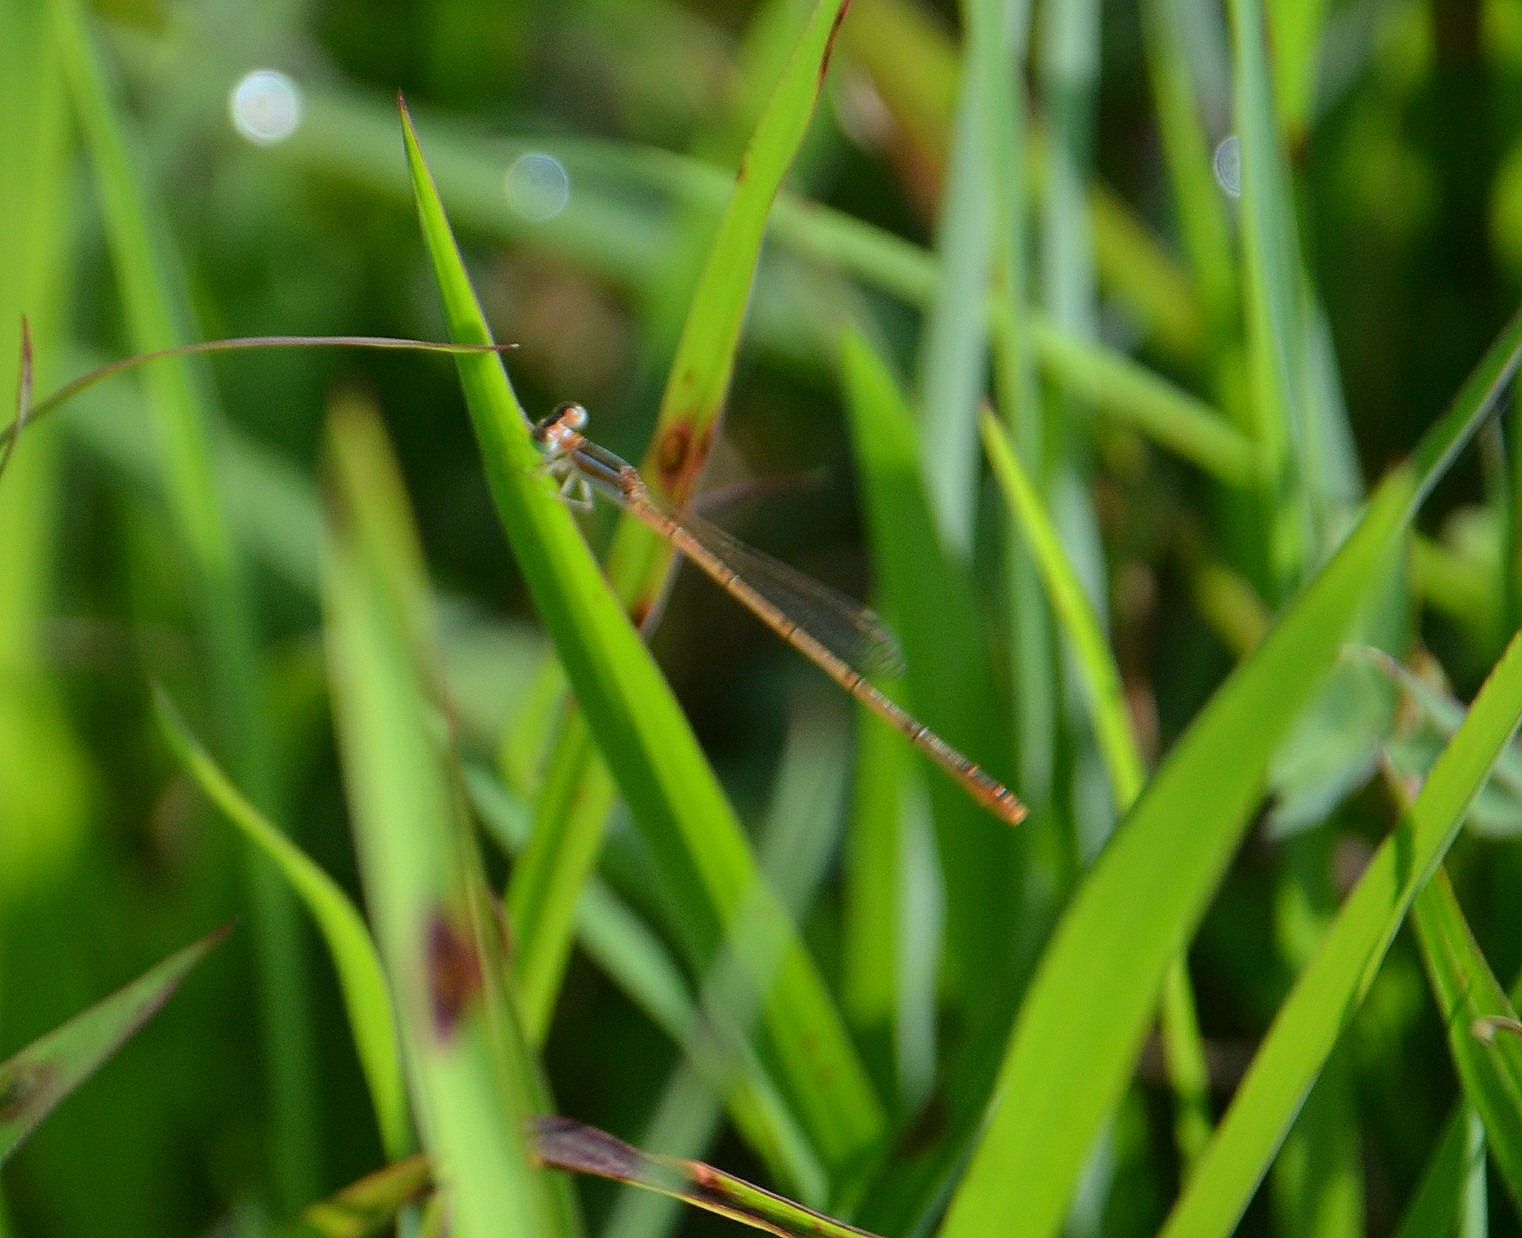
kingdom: Animalia
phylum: Arthropoda
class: Insecta
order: Odonata
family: Coenagrionidae
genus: Agriocnemis
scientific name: Agriocnemis pygmaea
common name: Pygmy wisp
